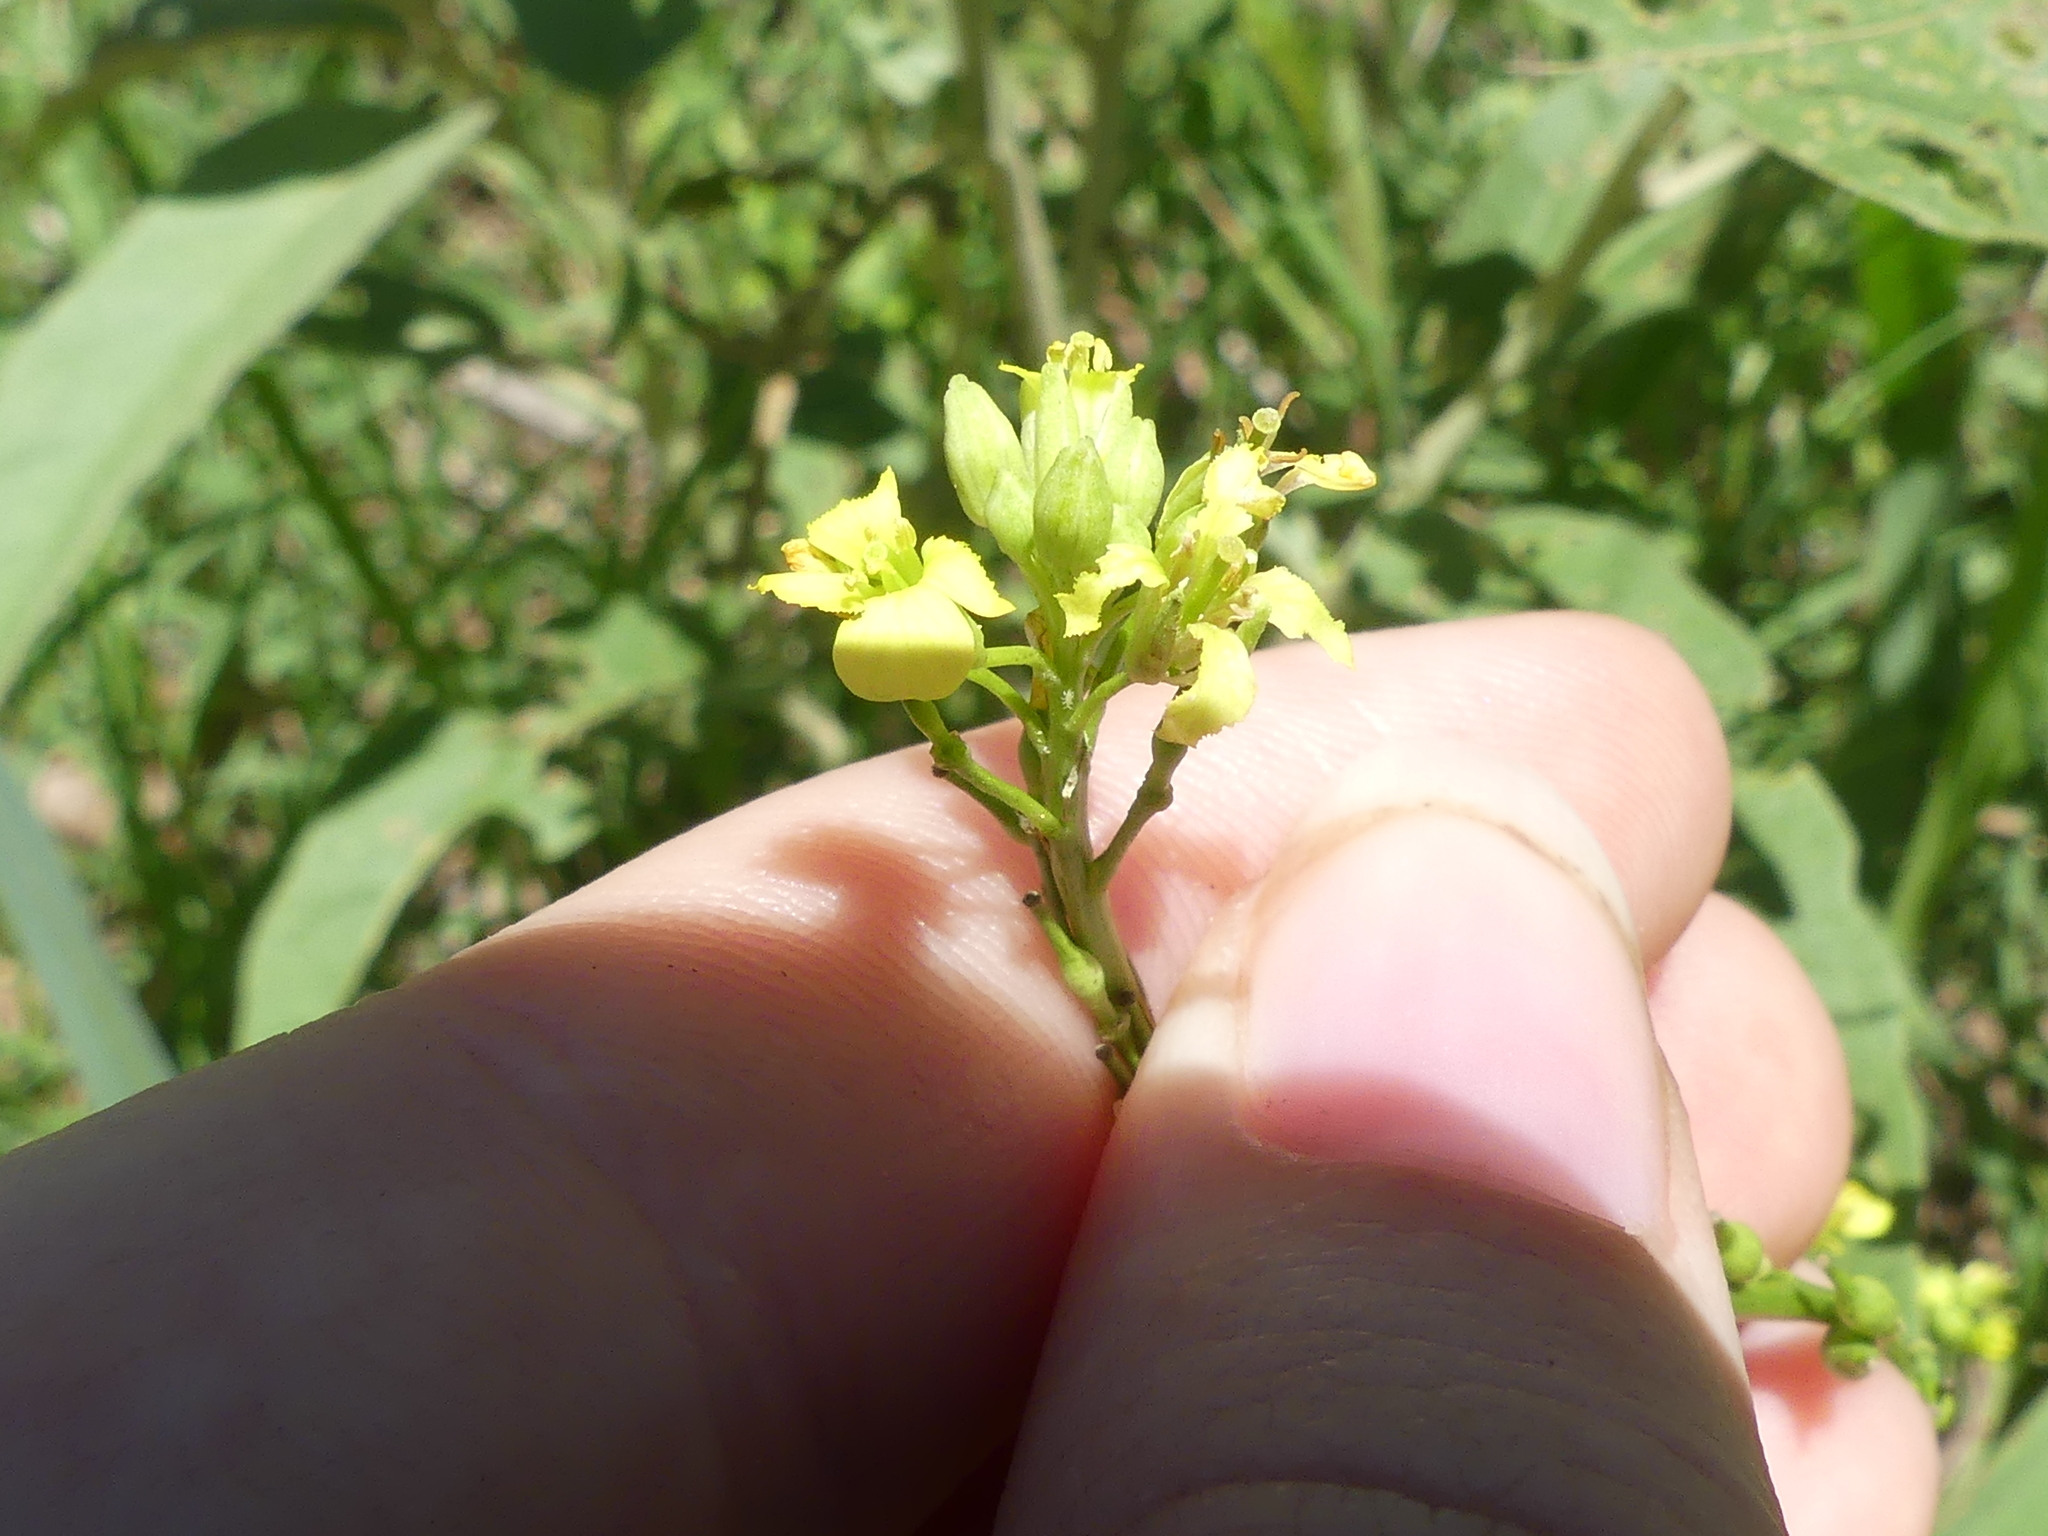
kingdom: Plantae
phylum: Tracheophyta
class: Magnoliopsida
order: Brassicales
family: Brassicaceae
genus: Rapistrum
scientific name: Rapistrum rugosum
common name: Annual bastardcabbage
